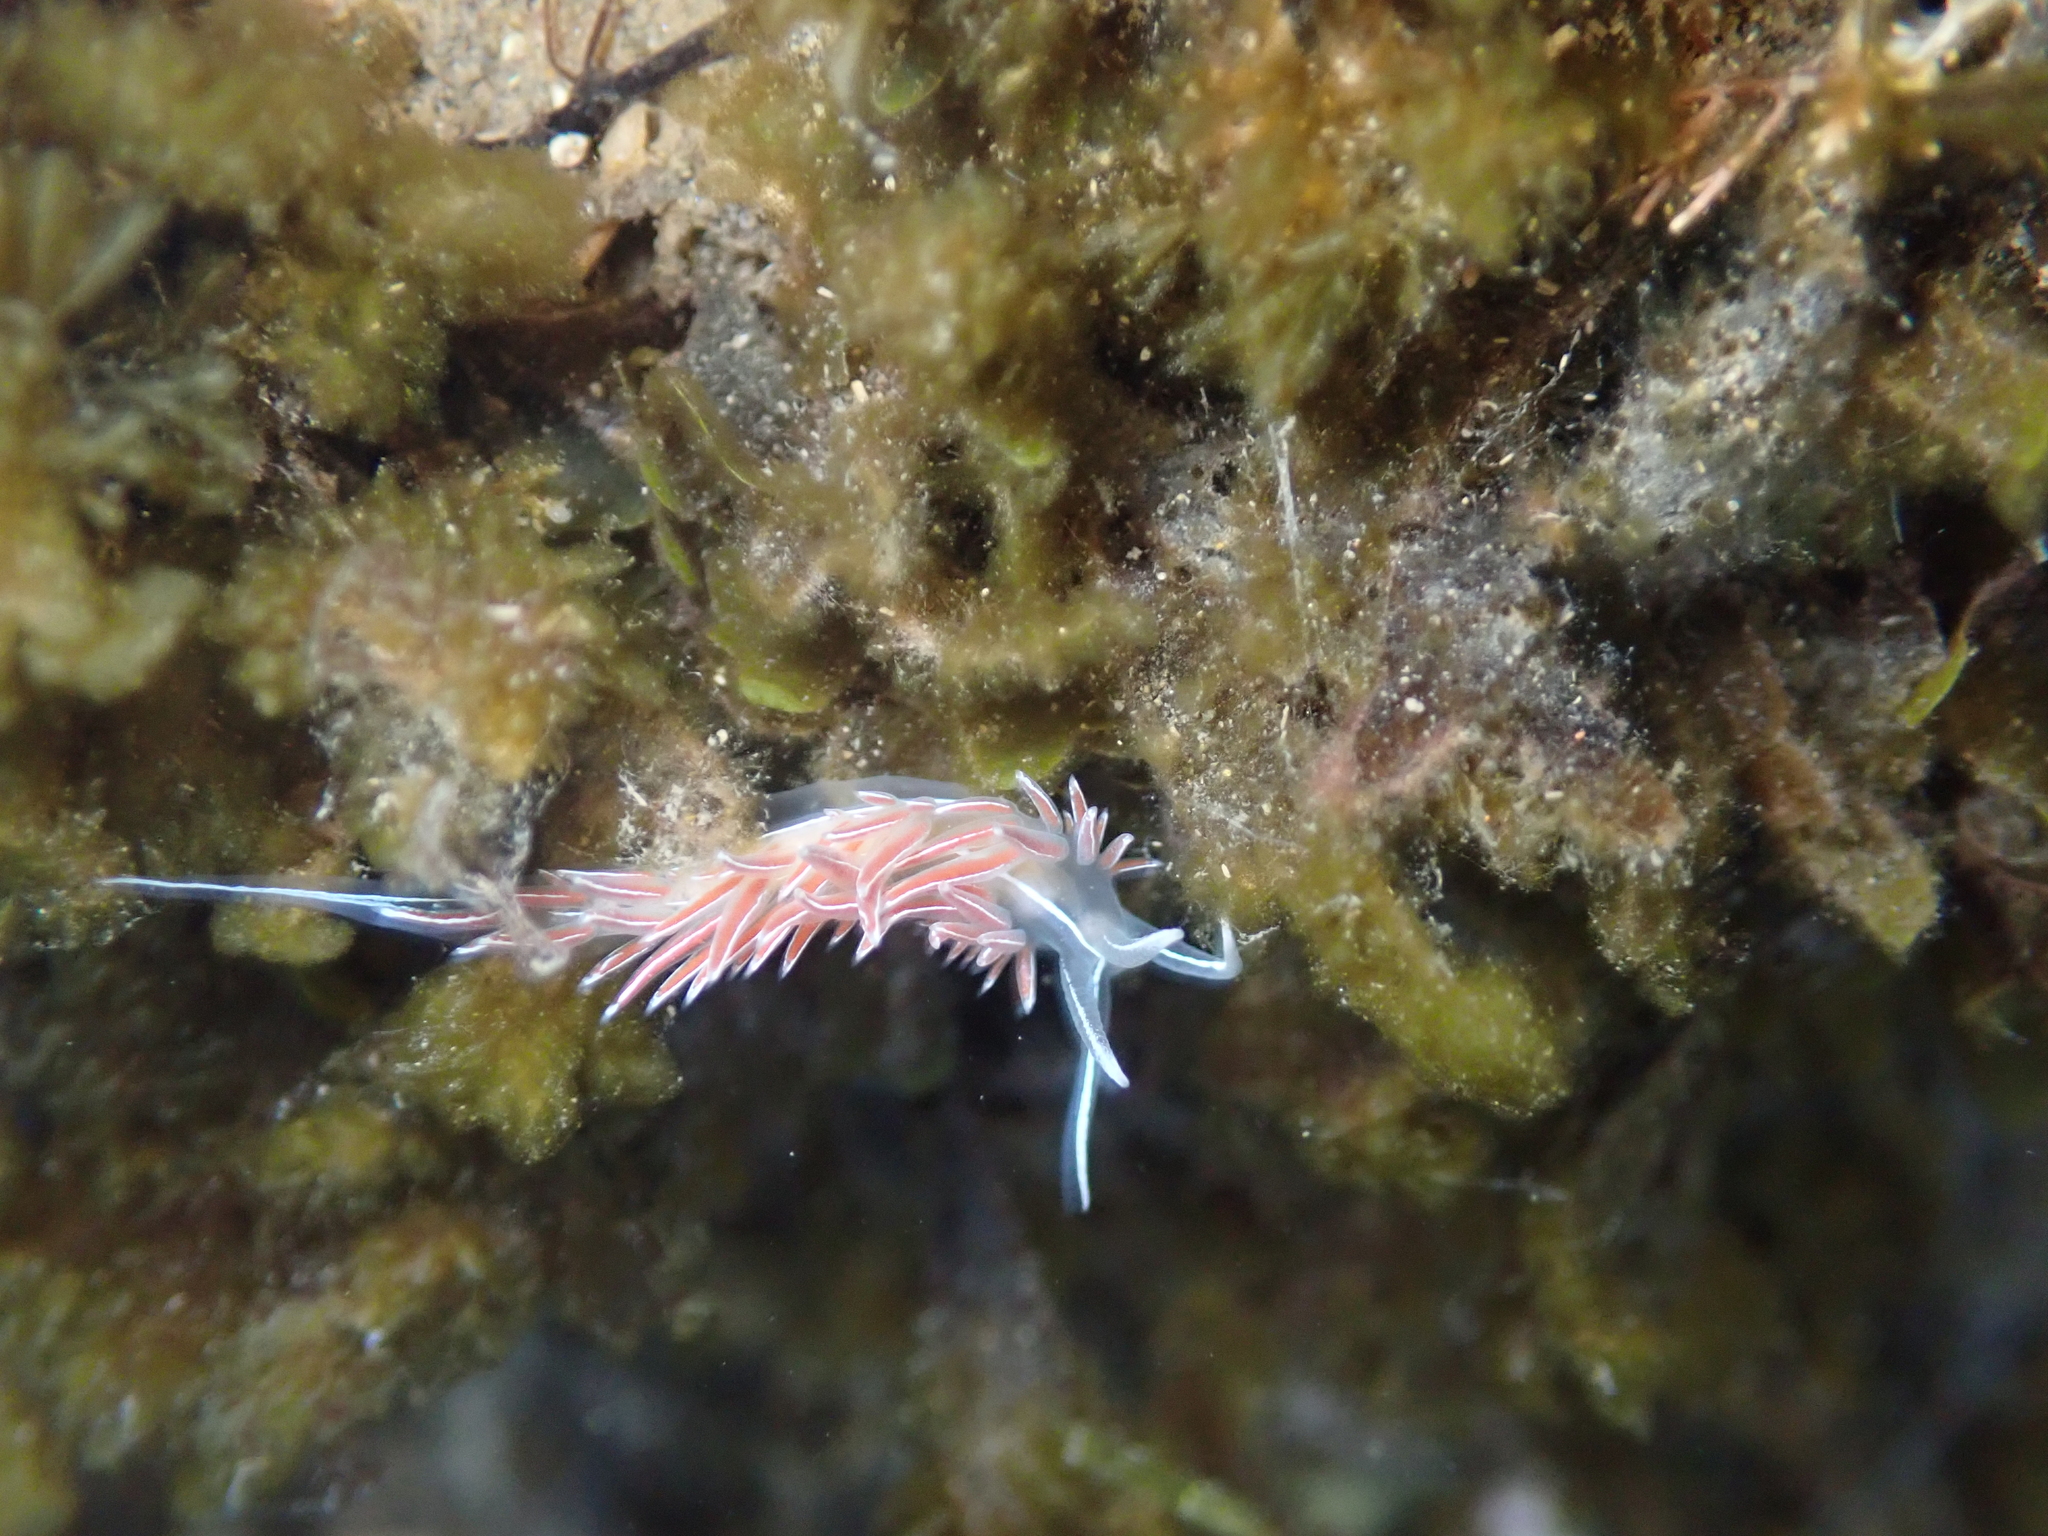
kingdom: Animalia
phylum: Mollusca
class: Gastropoda
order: Nudibranchia
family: Coryphellidae
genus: Coryphella
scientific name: Coryphella lineata
